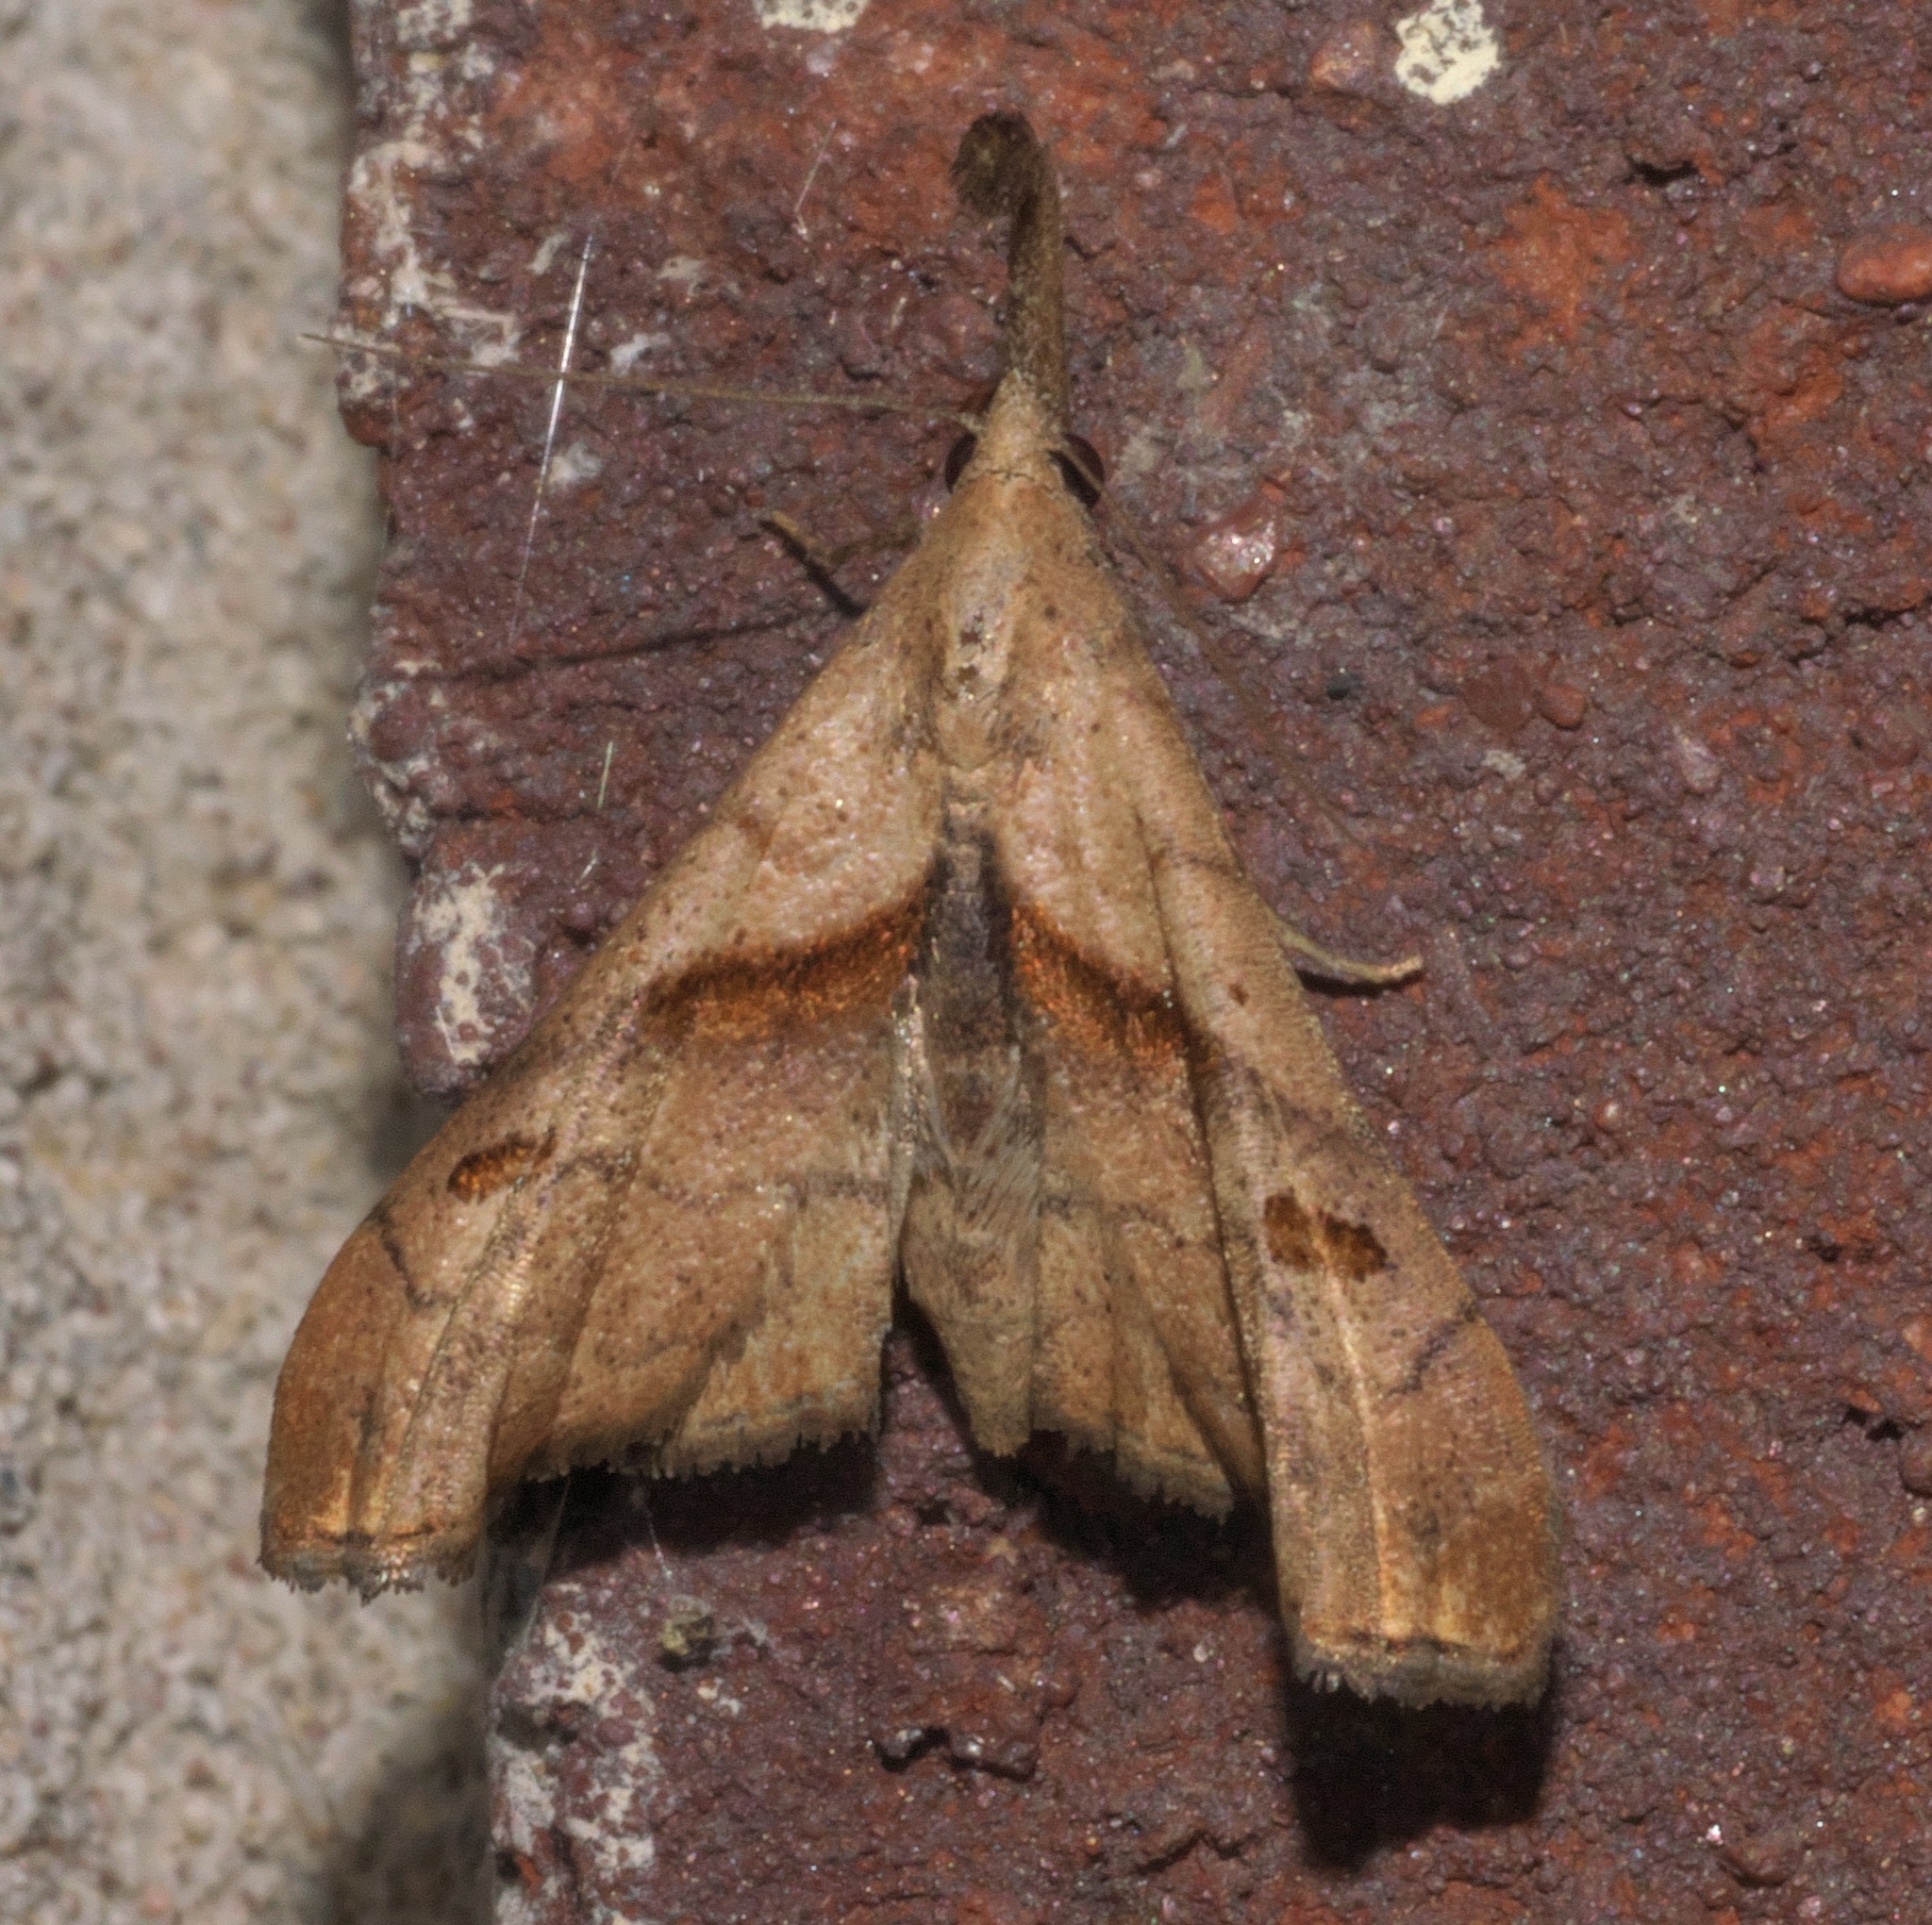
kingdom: Animalia
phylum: Arthropoda
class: Insecta
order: Lepidoptera
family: Erebidae
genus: Palthis
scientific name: Palthis angulalis
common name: Dark-spotted palthis moth
